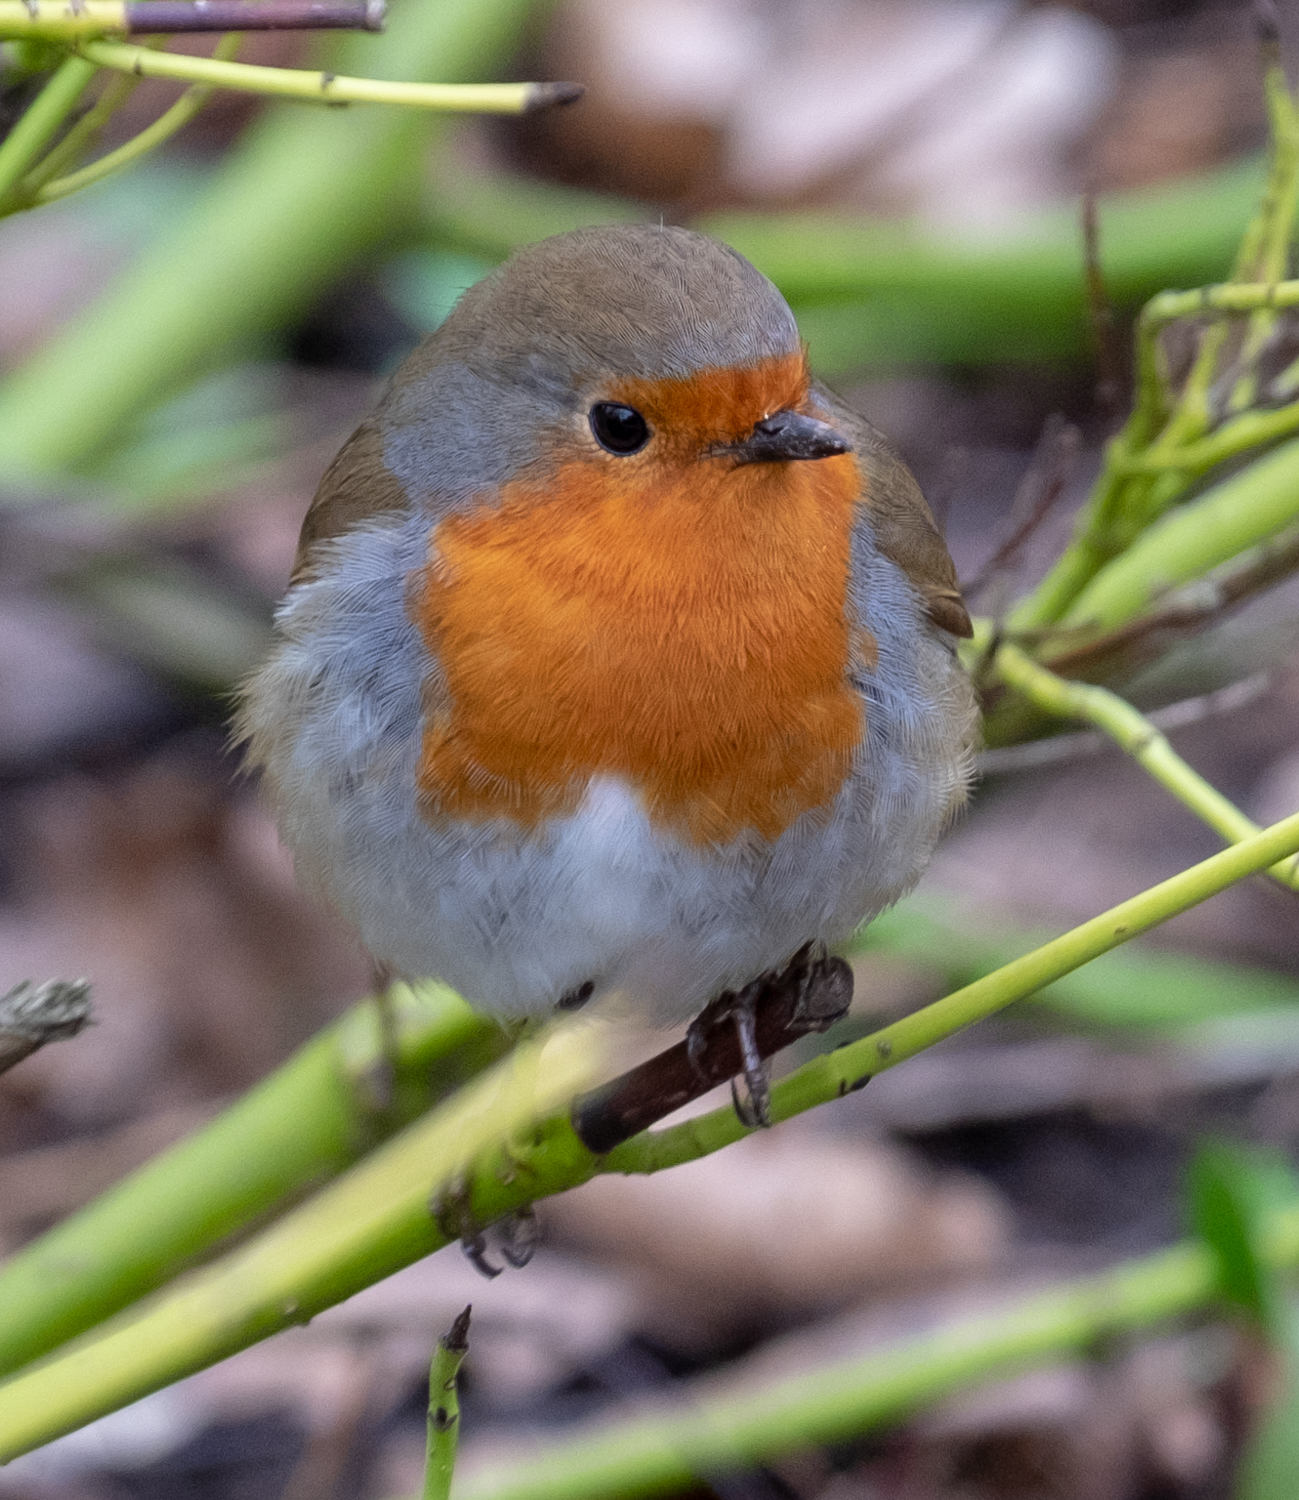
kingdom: Animalia
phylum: Chordata
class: Aves
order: Passeriformes
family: Muscicapidae
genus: Erithacus
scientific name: Erithacus rubecula
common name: European robin
